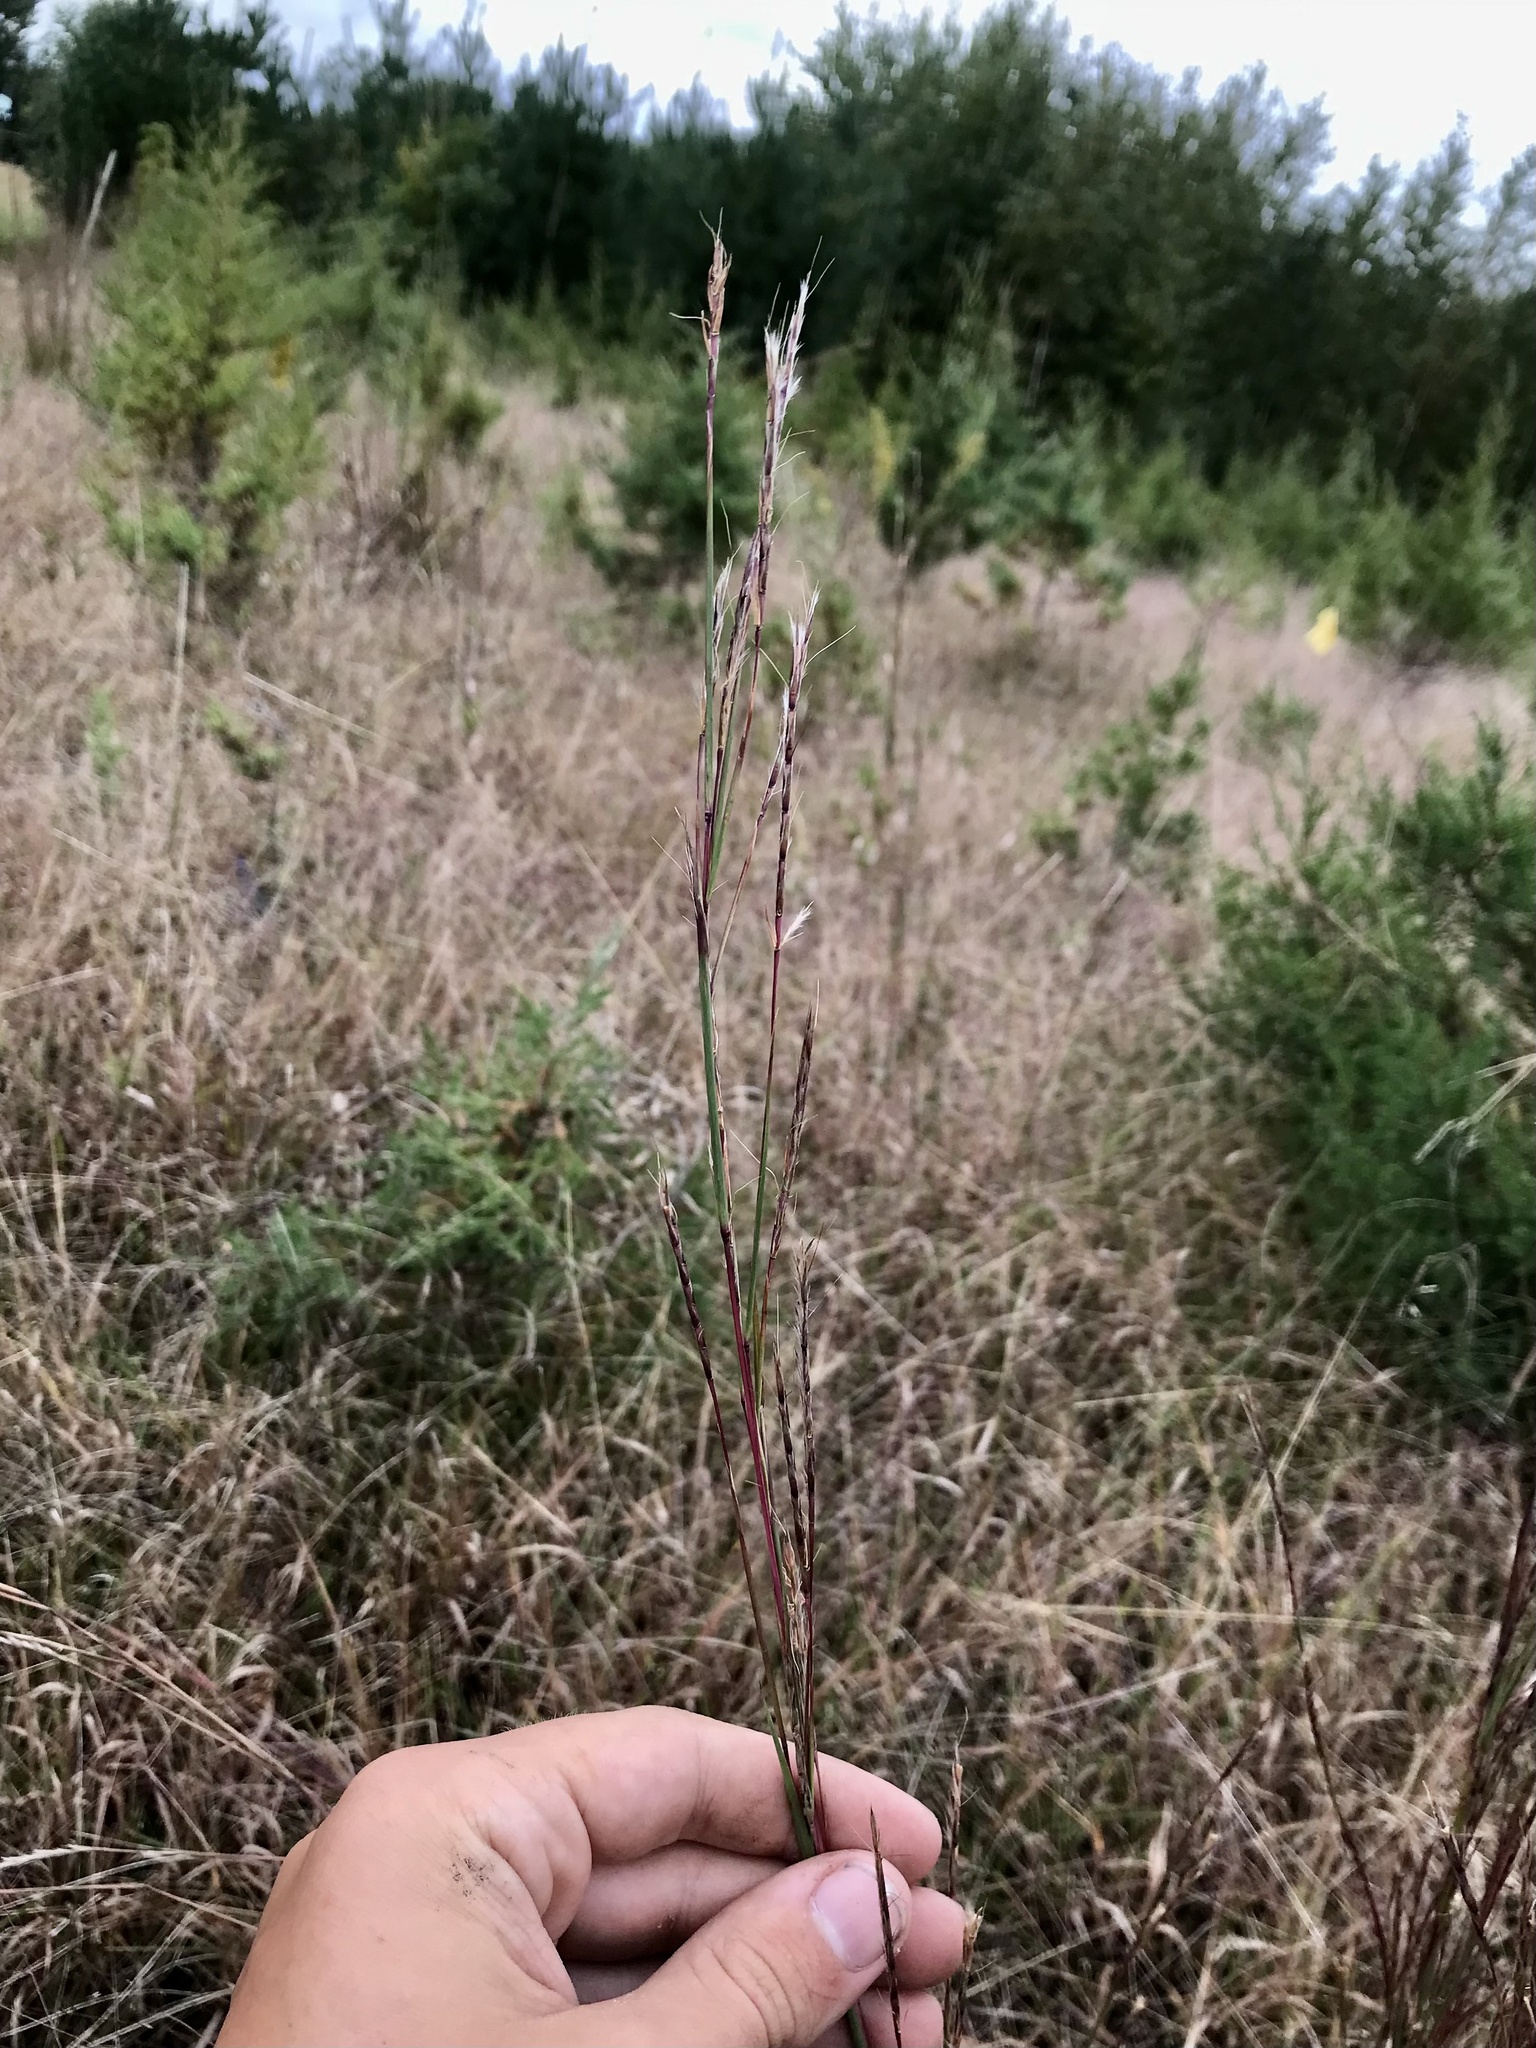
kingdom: Plantae
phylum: Tracheophyta
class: Liliopsida
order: Poales
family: Poaceae
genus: Schizachyrium
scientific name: Schizachyrium scoparium
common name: Little bluestem
